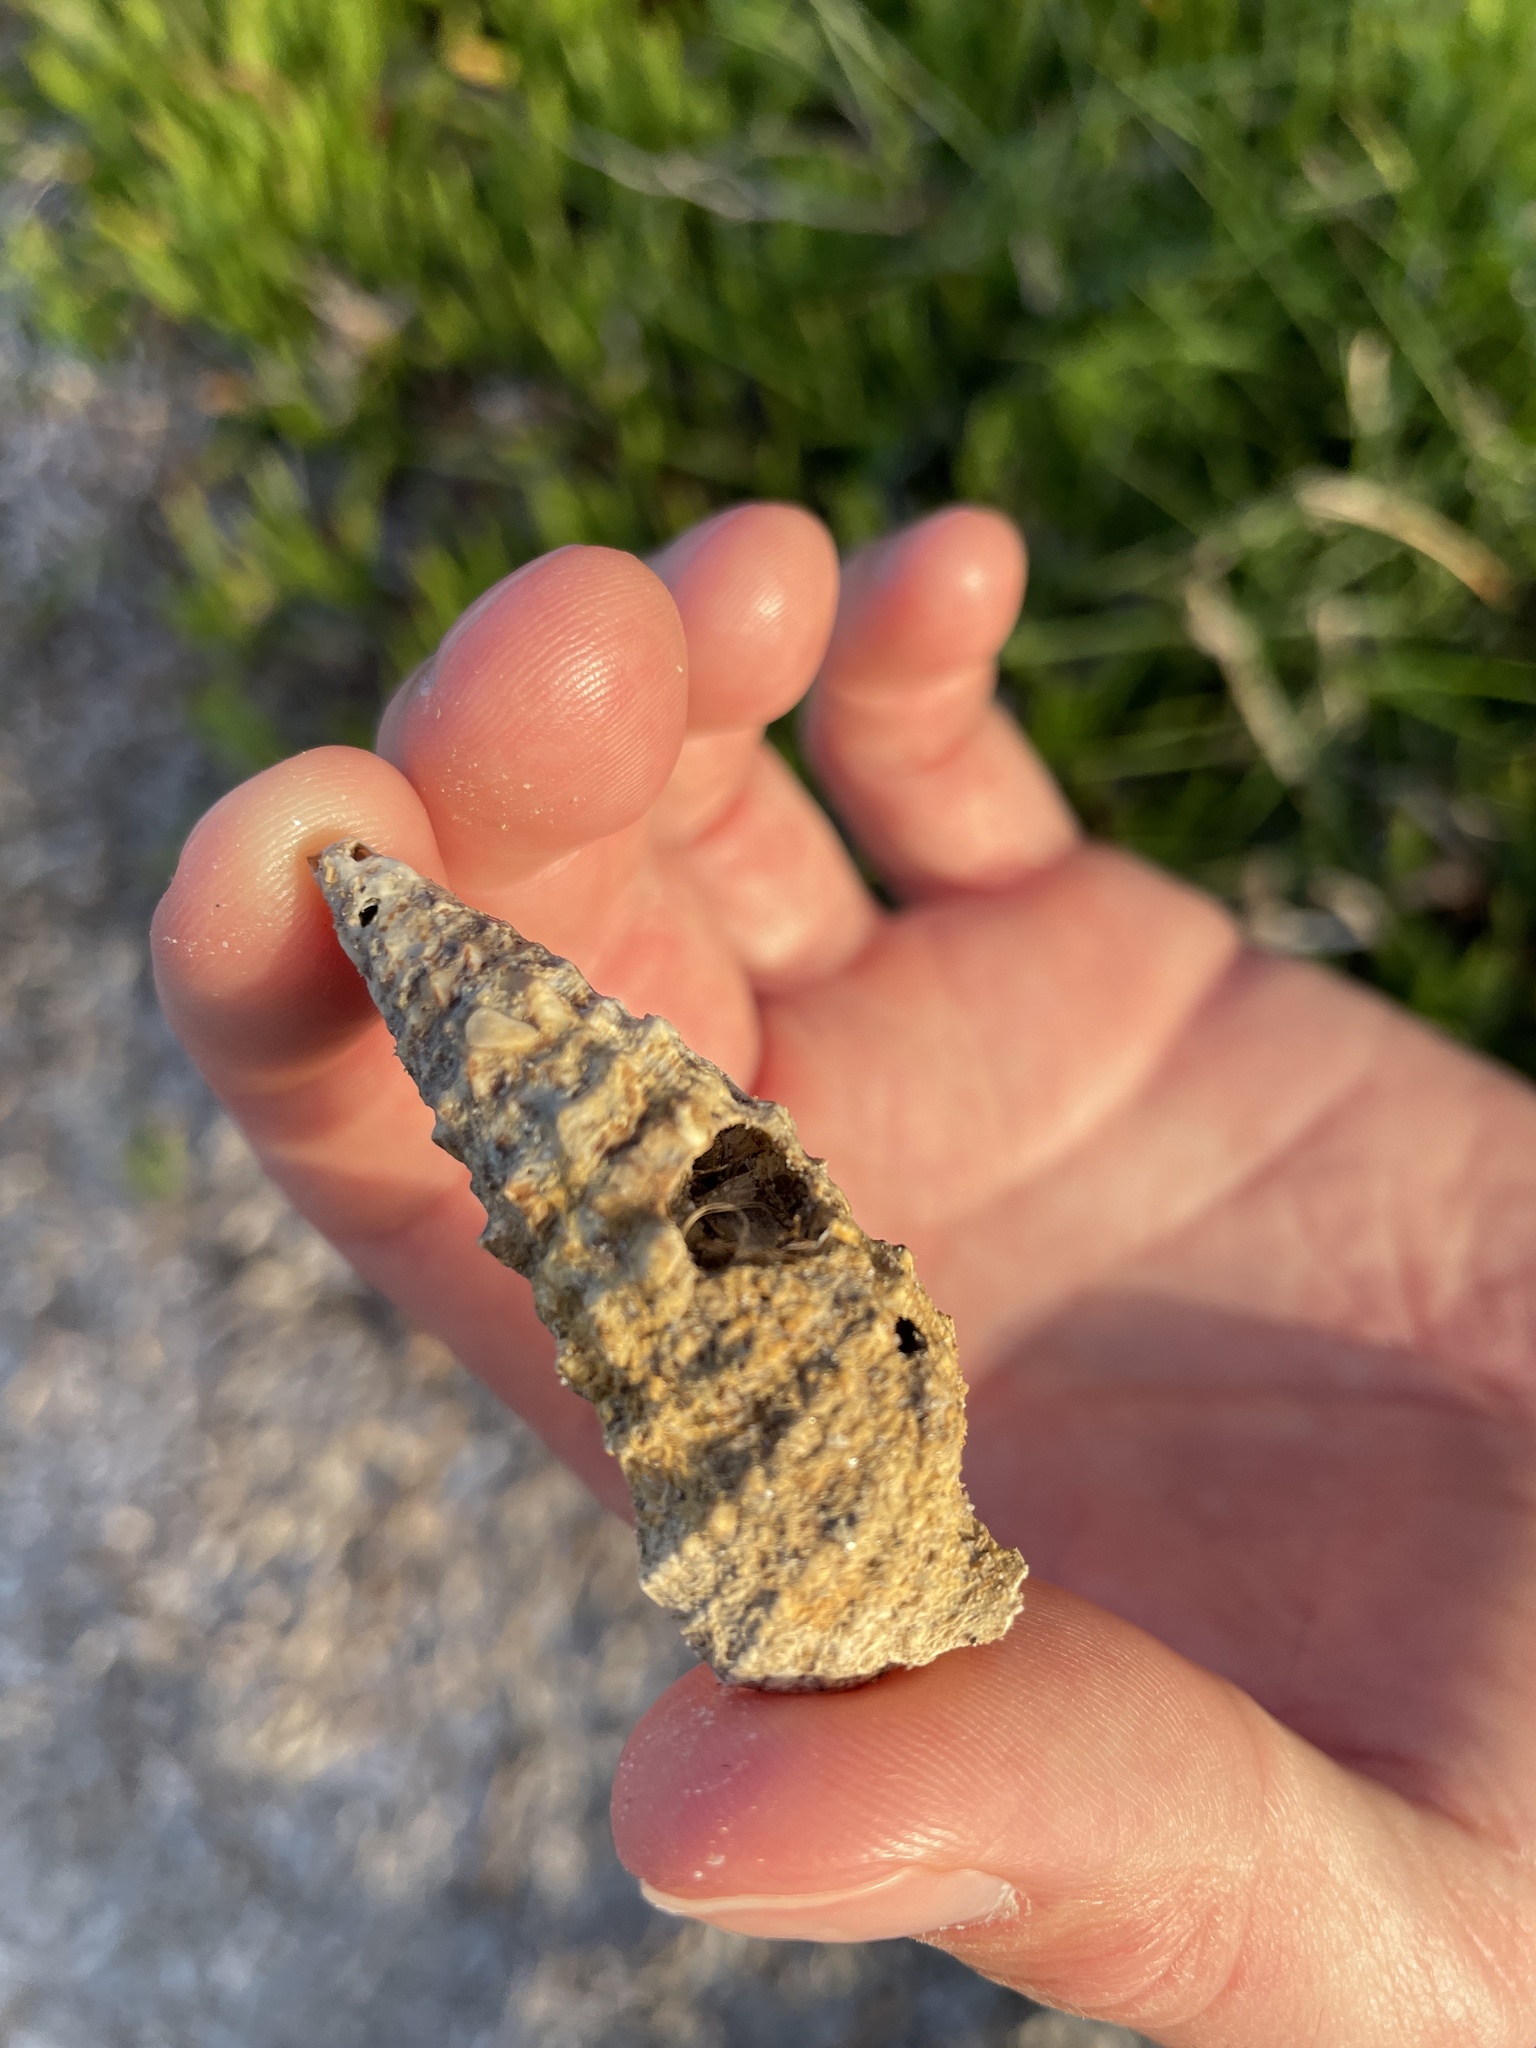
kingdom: Animalia
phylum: Mollusca
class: Gastropoda
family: Cerithiidae
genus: Cerithium
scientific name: Cerithium vulgatum
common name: European cerith
